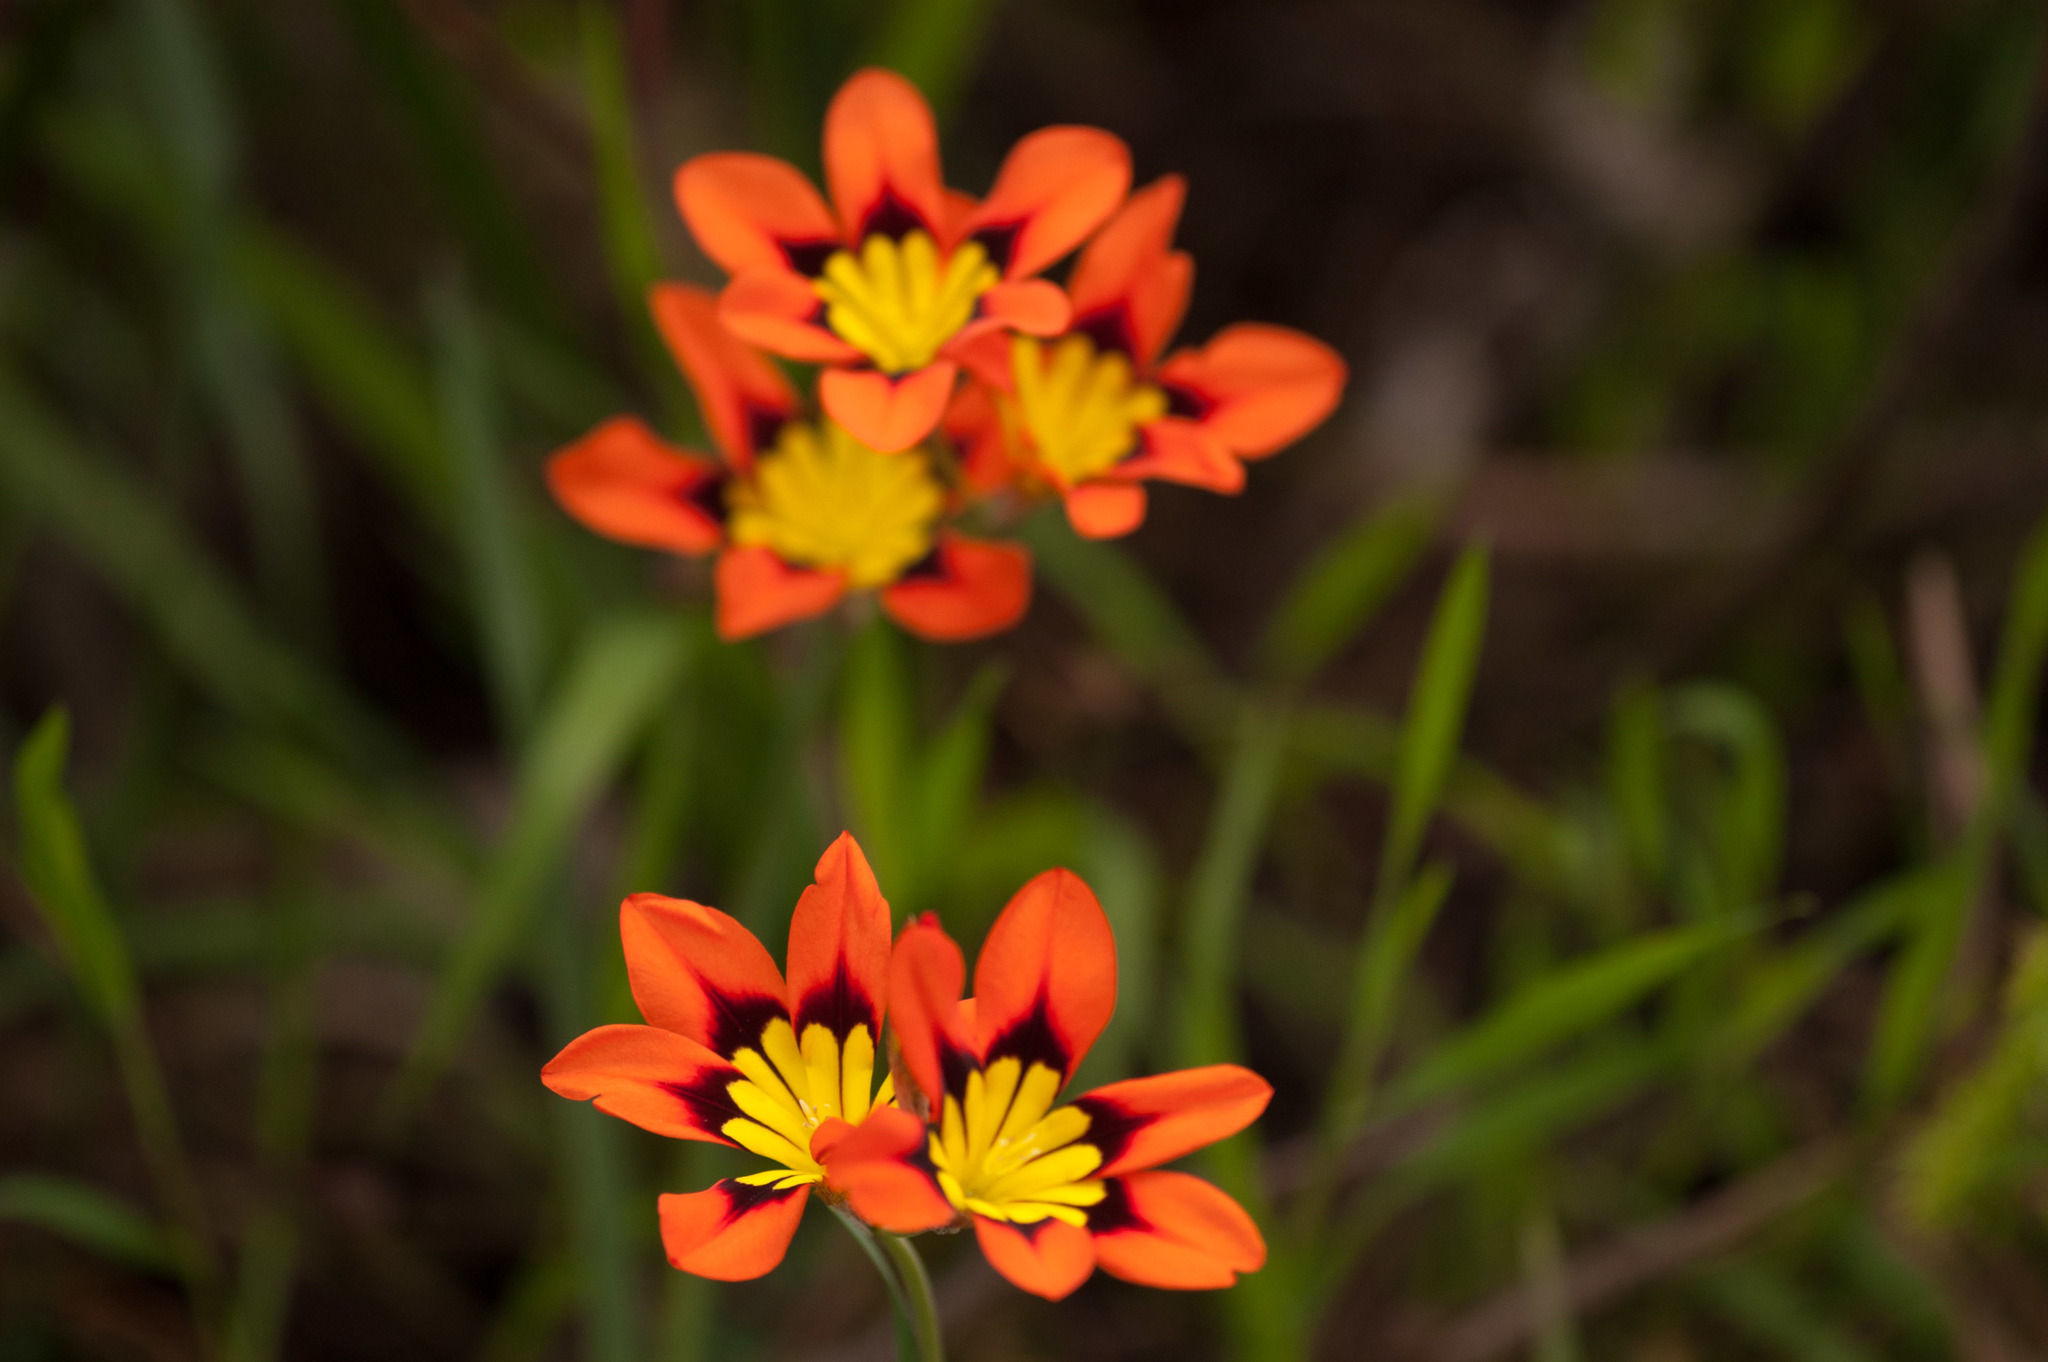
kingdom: Plantae
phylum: Tracheophyta
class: Liliopsida
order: Asparagales
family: Iridaceae
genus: Sparaxis
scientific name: Sparaxis tricolor
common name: Wandflower
